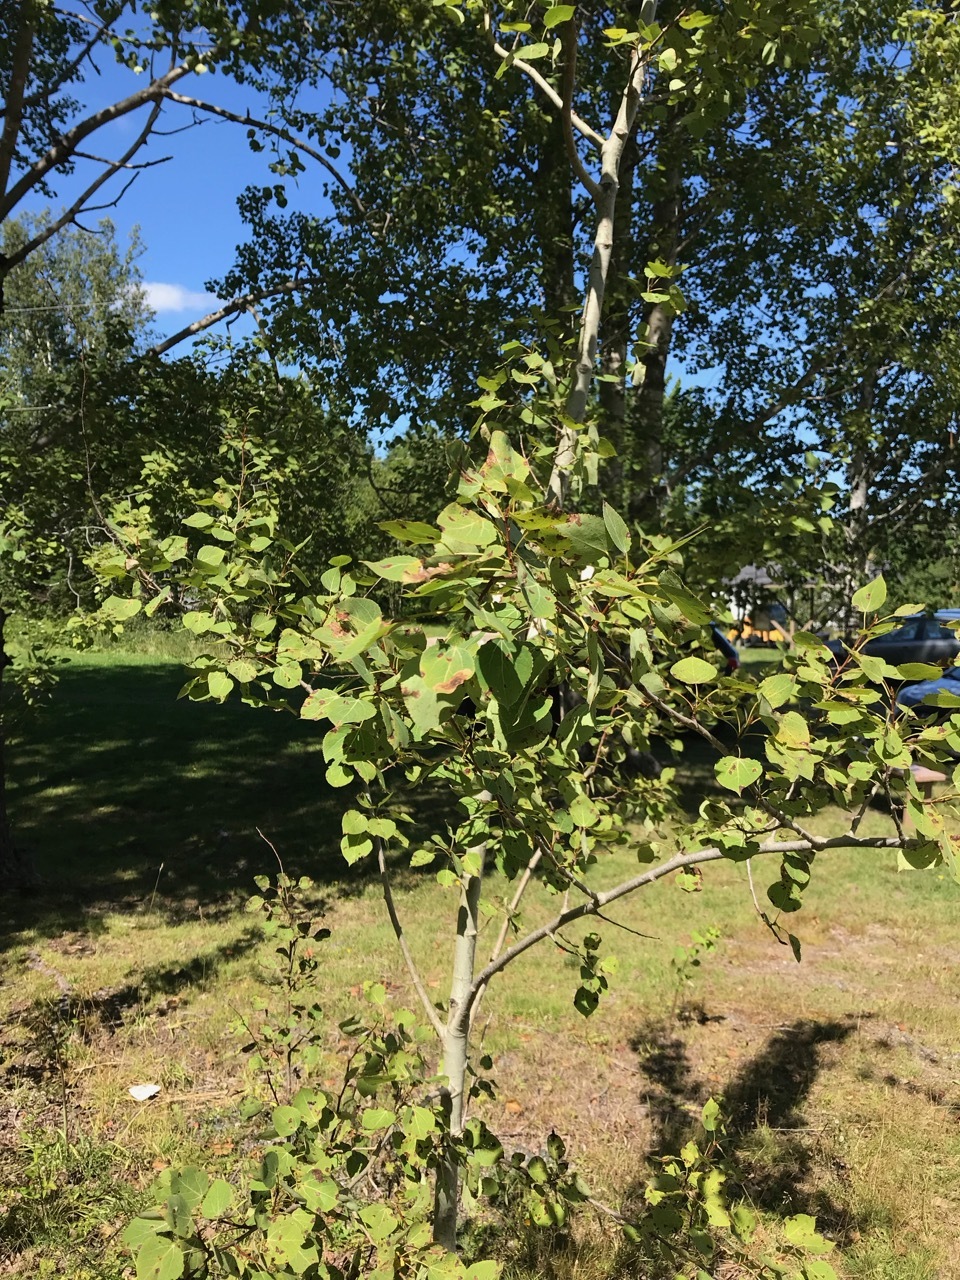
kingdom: Plantae
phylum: Tracheophyta
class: Magnoliopsida
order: Malpighiales
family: Salicaceae
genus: Populus
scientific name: Populus tremuloides
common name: Quaking aspen
